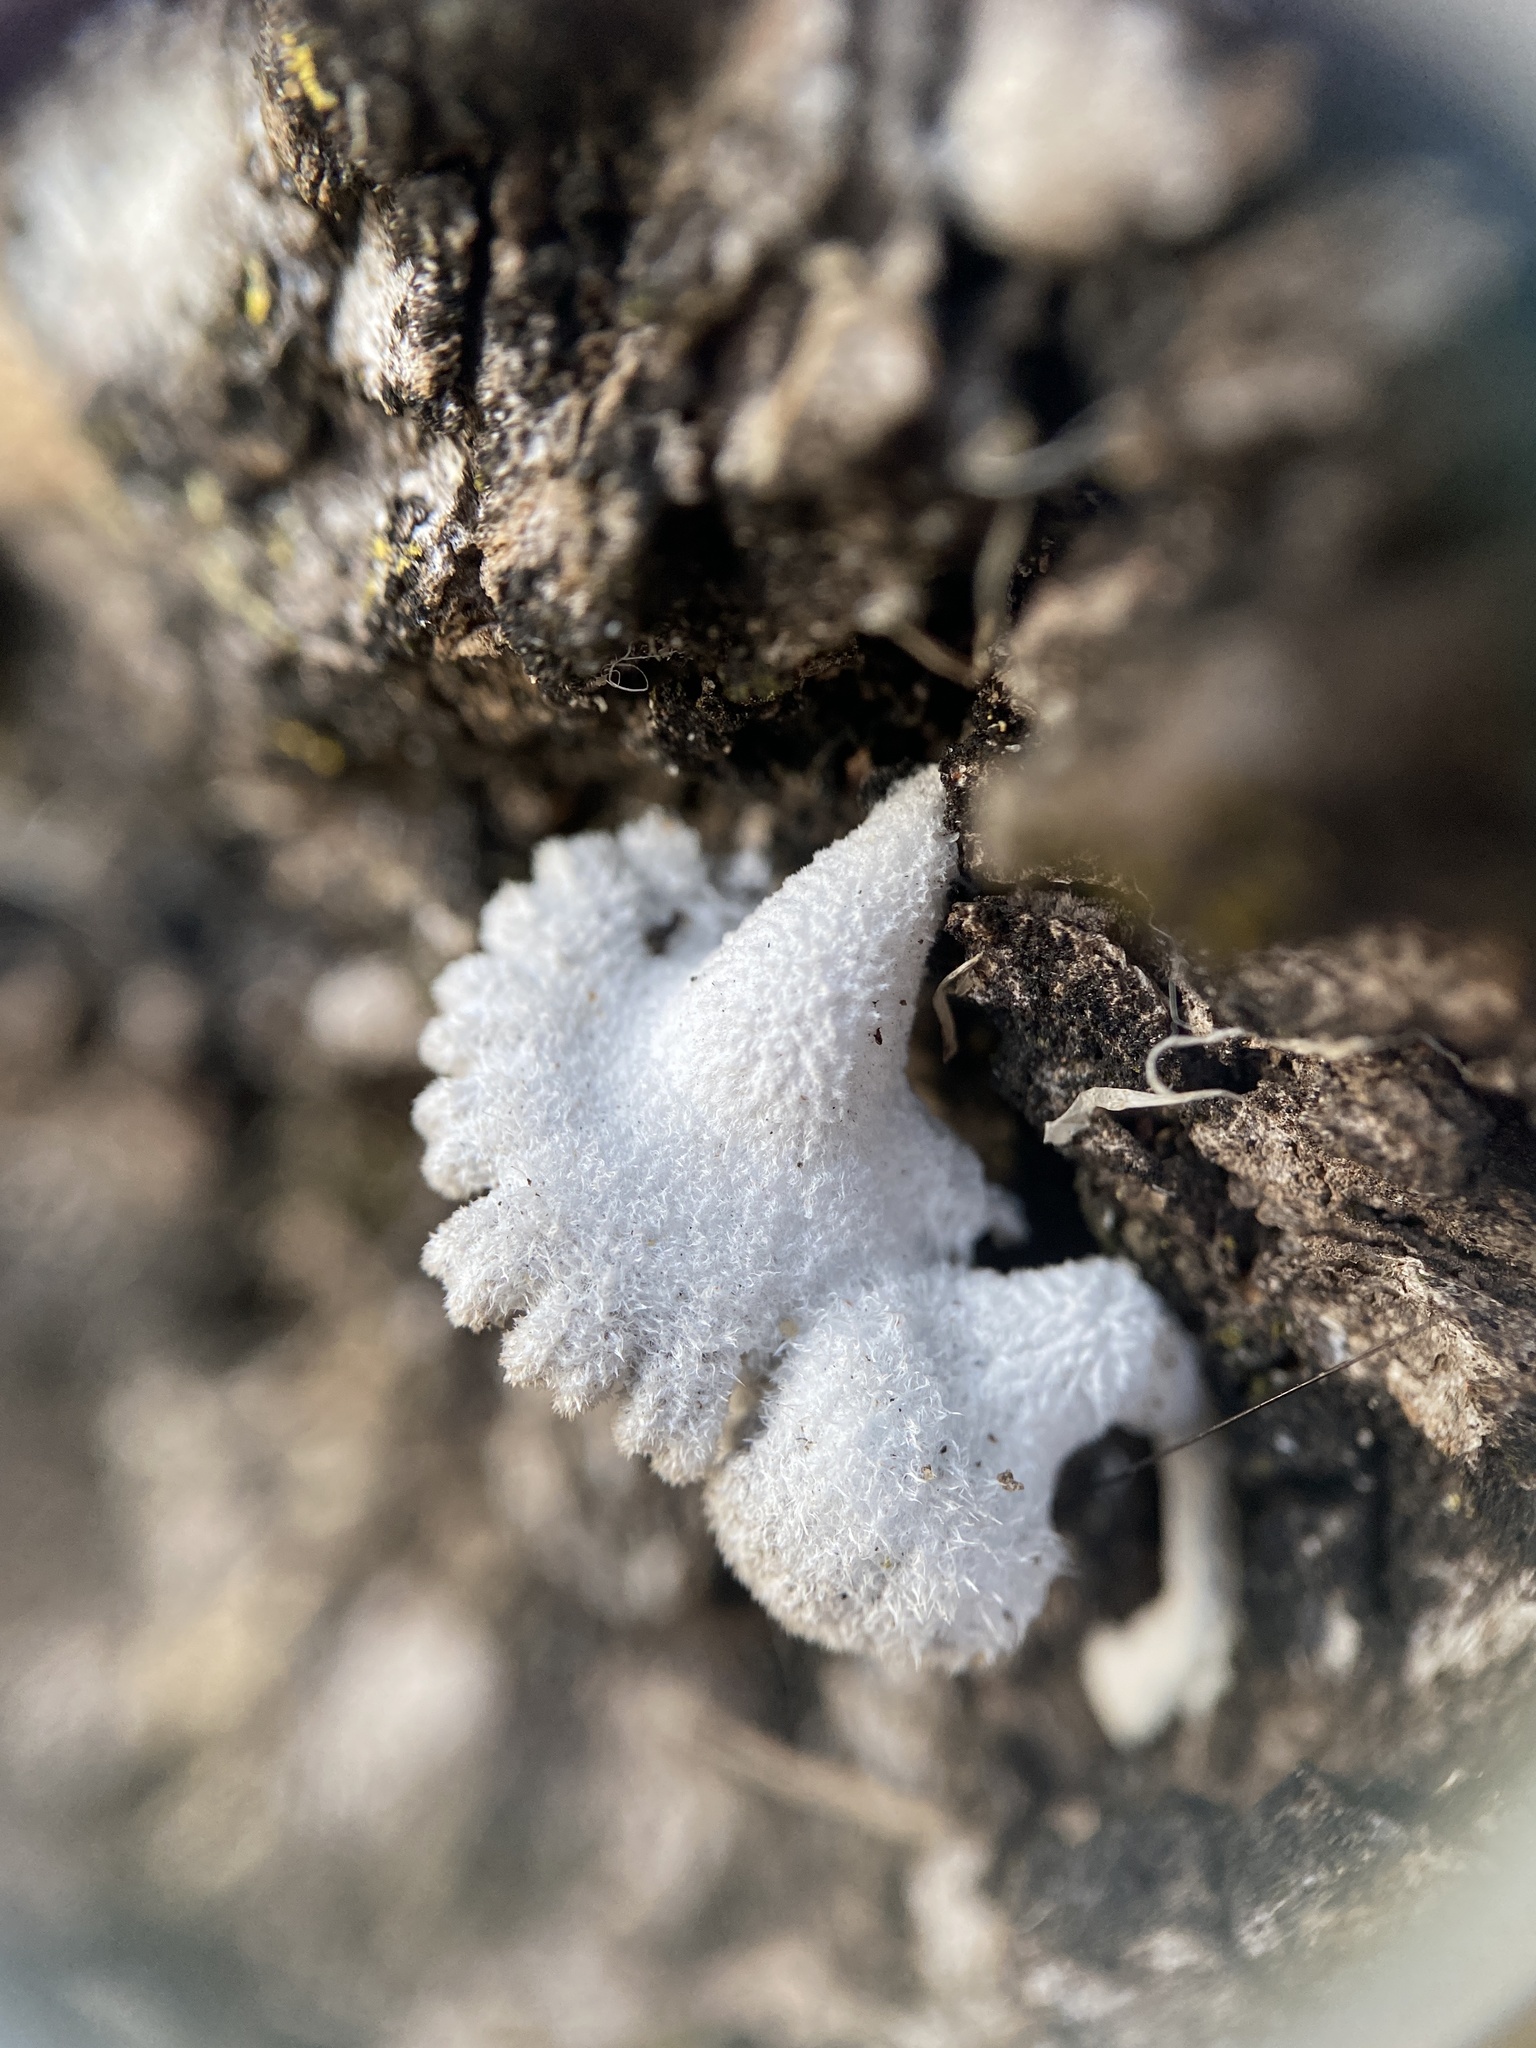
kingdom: Fungi
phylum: Basidiomycota
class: Agaricomycetes
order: Agaricales
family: Schizophyllaceae
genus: Schizophyllum
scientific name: Schizophyllum commune
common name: Common porecrust
